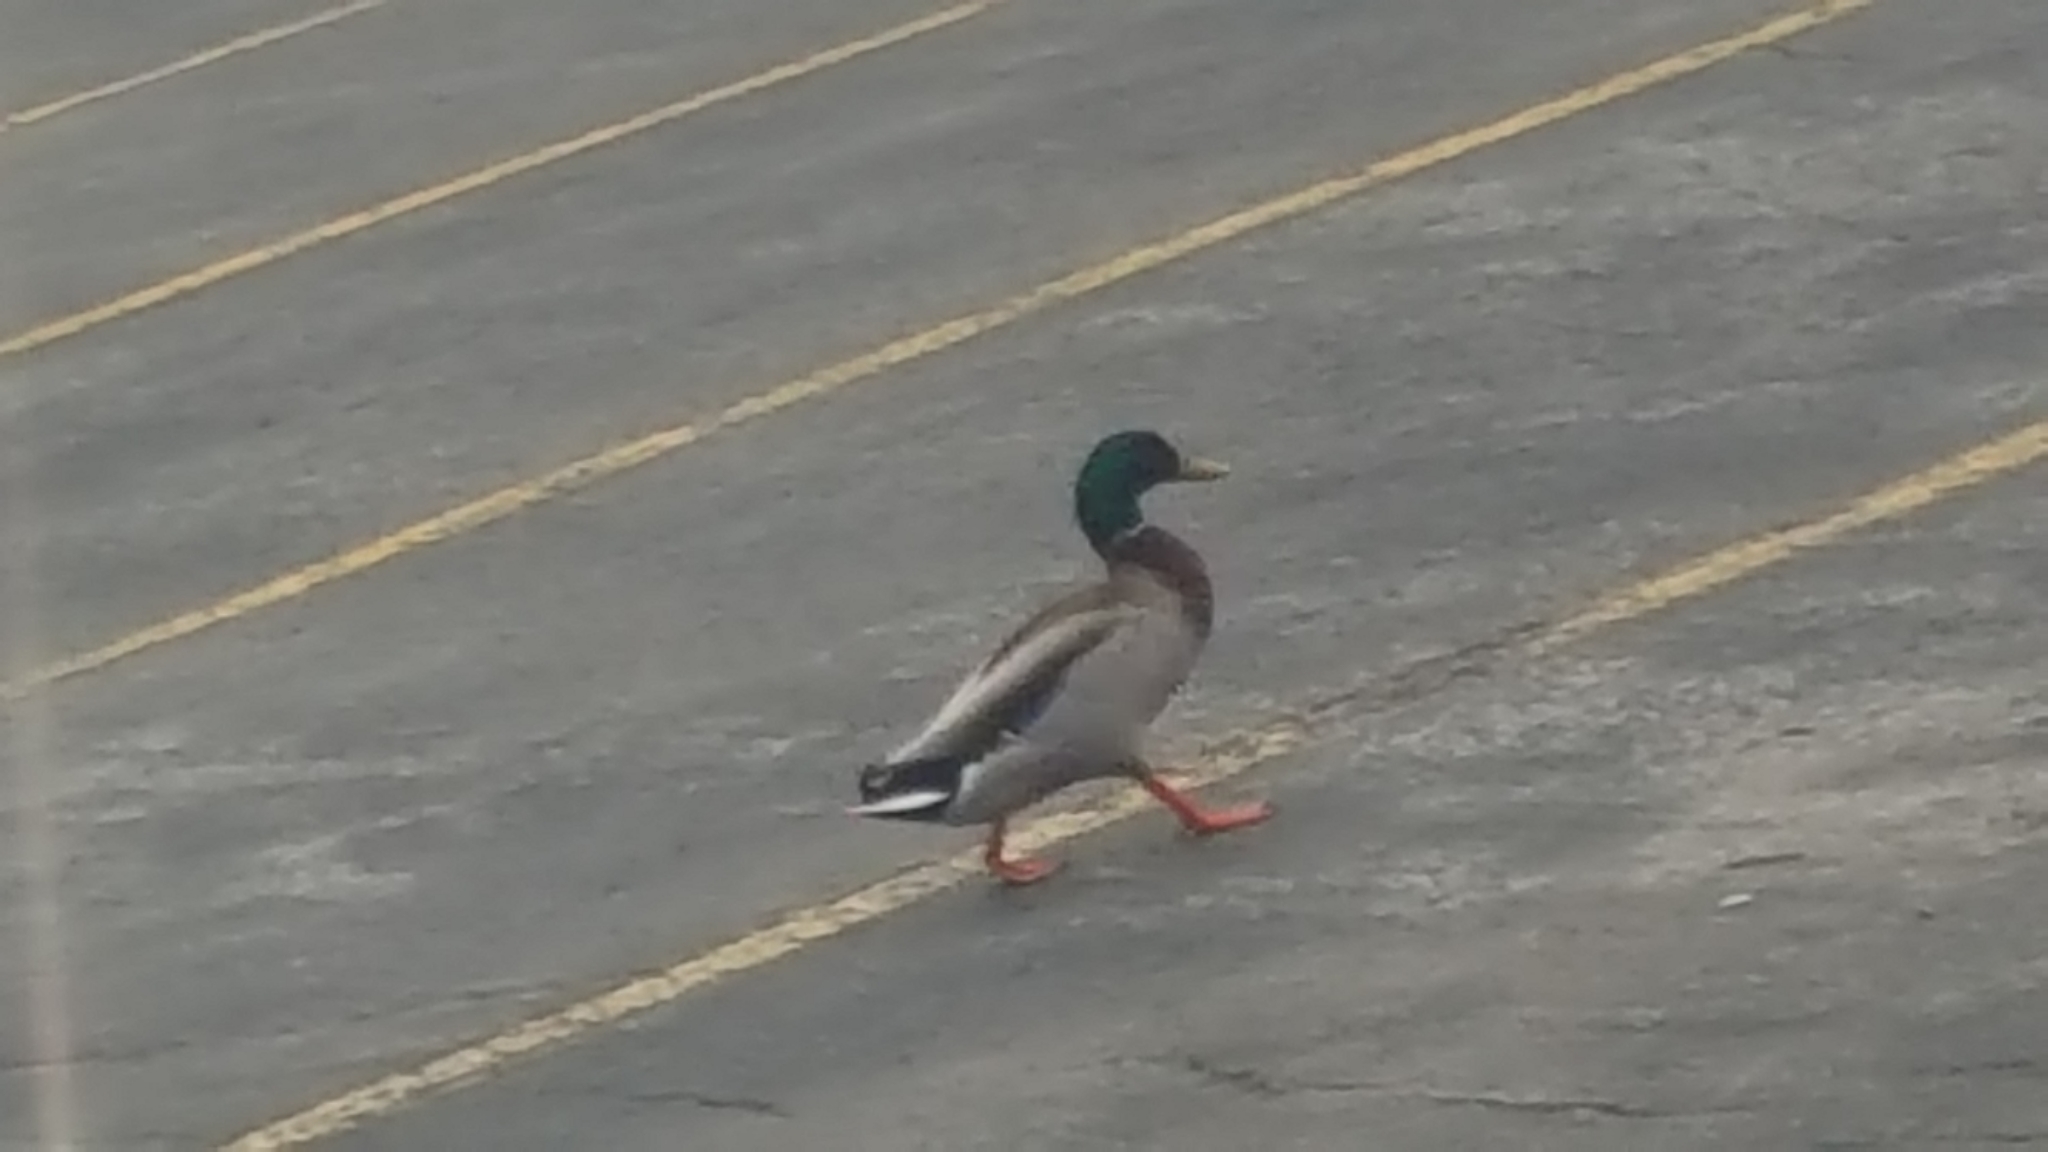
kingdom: Animalia
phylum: Chordata
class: Aves
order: Anseriformes
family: Anatidae
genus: Anas
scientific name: Anas platyrhynchos
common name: Mallard
